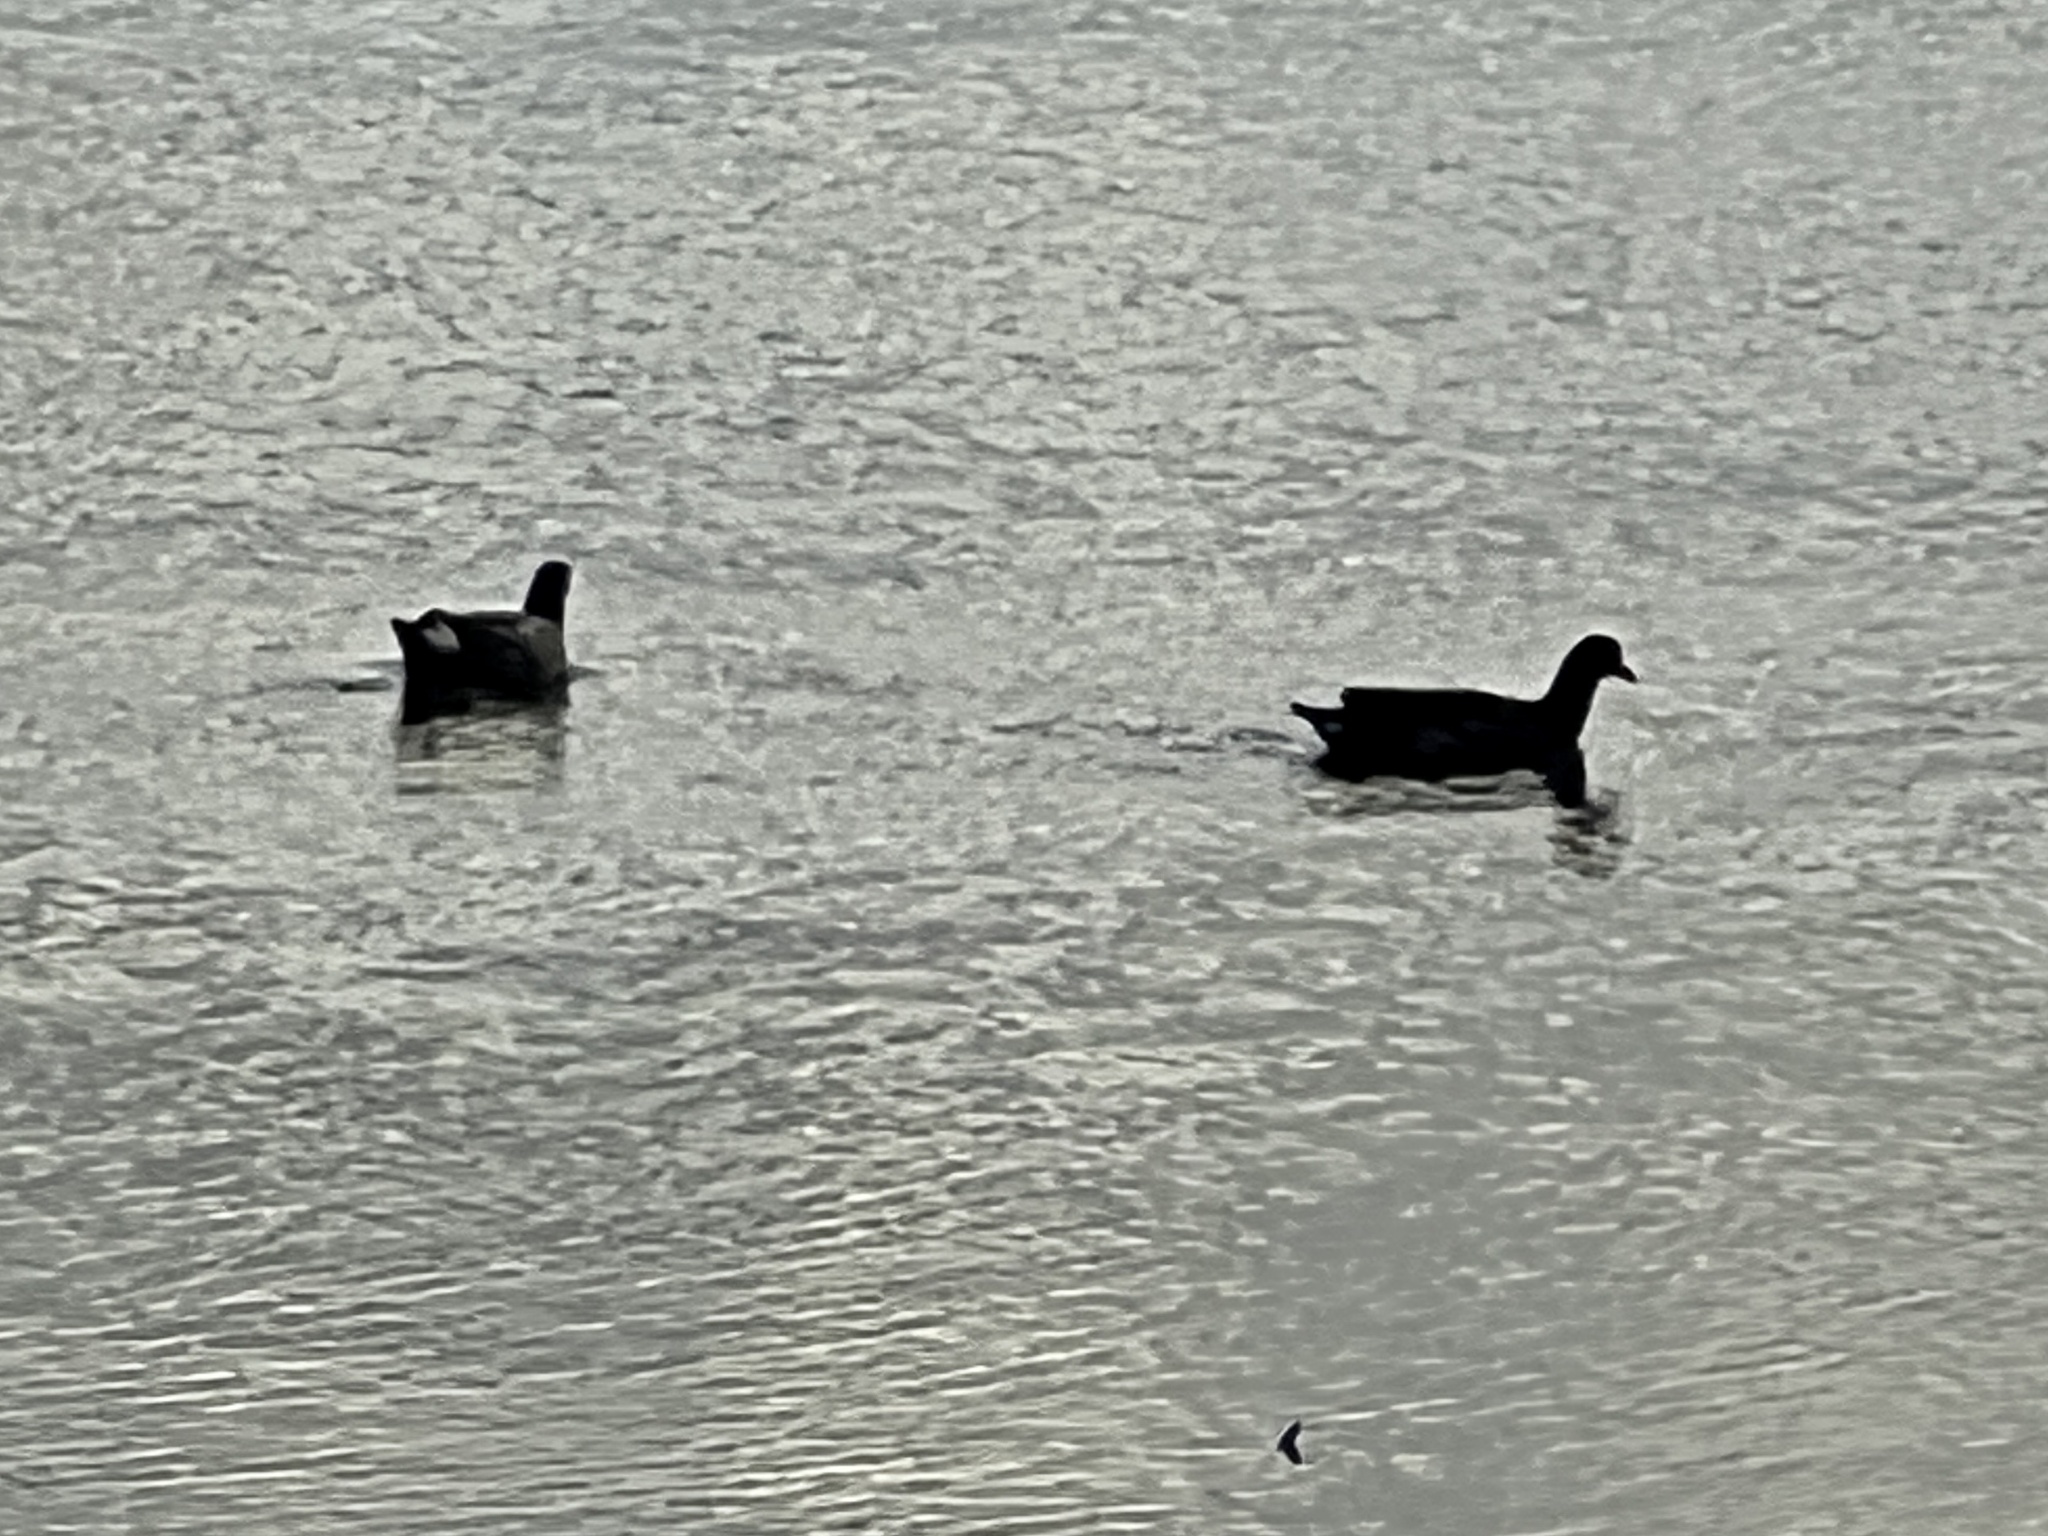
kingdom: Animalia
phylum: Chordata
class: Aves
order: Gruiformes
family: Rallidae
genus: Gallinula
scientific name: Gallinula chloropus
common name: Common moorhen
